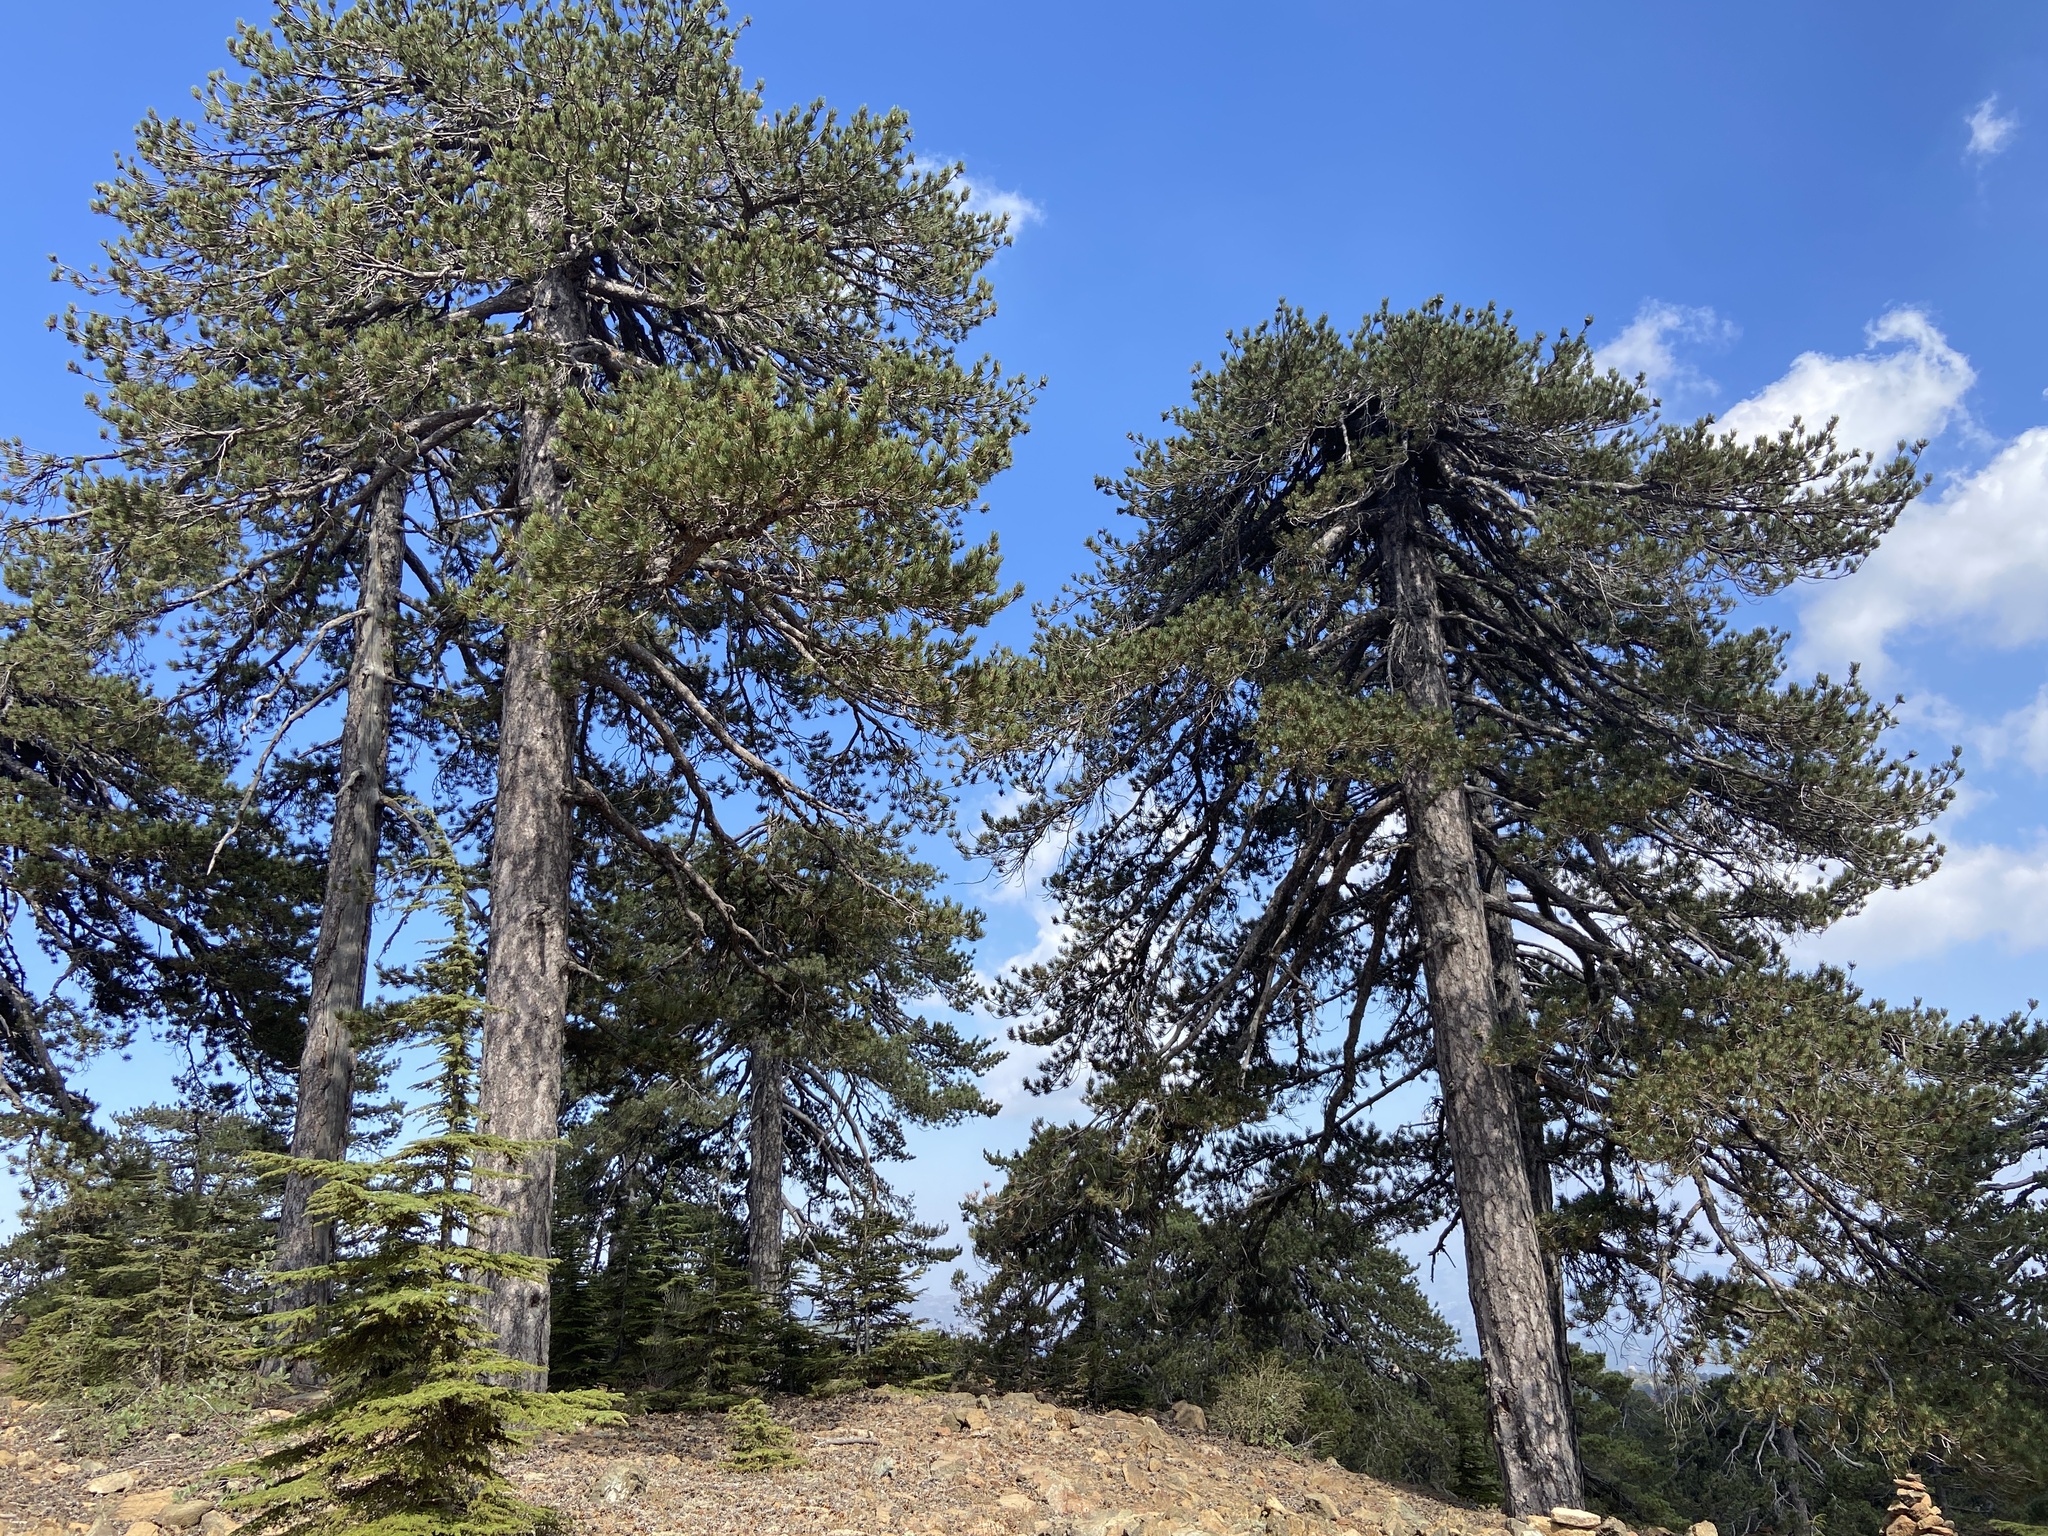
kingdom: Plantae
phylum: Tracheophyta
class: Pinopsida
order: Pinales
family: Pinaceae
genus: Pinus
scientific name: Pinus nigra
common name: Austrian pine
